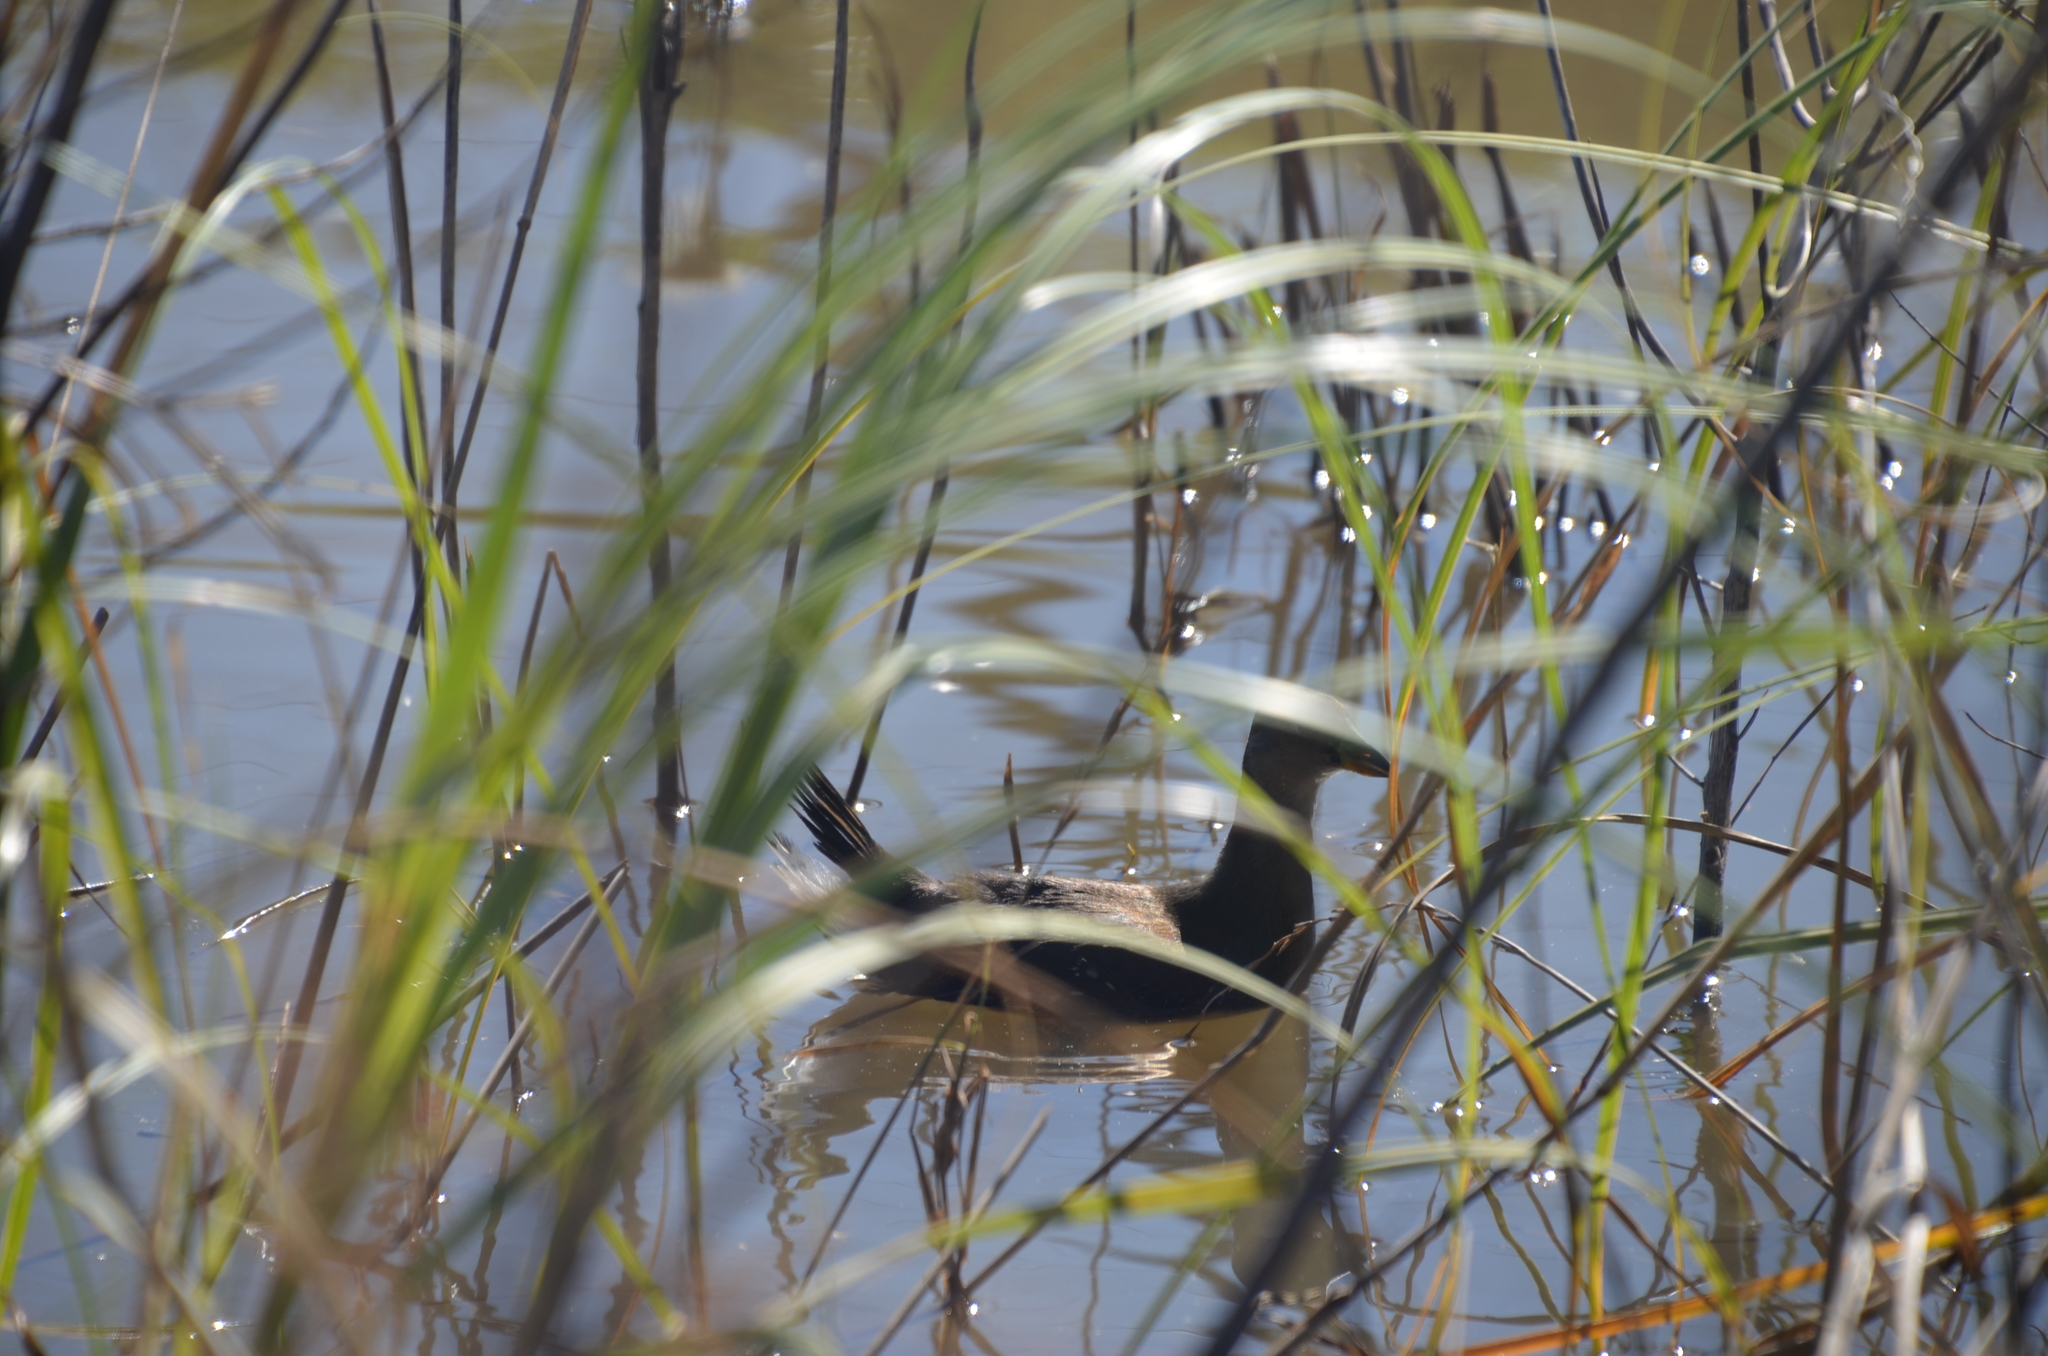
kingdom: Animalia
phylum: Chordata
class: Aves
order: Gruiformes
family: Rallidae
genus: Gallinula
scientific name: Gallinula melanops
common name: Spot-flanked gallinule
